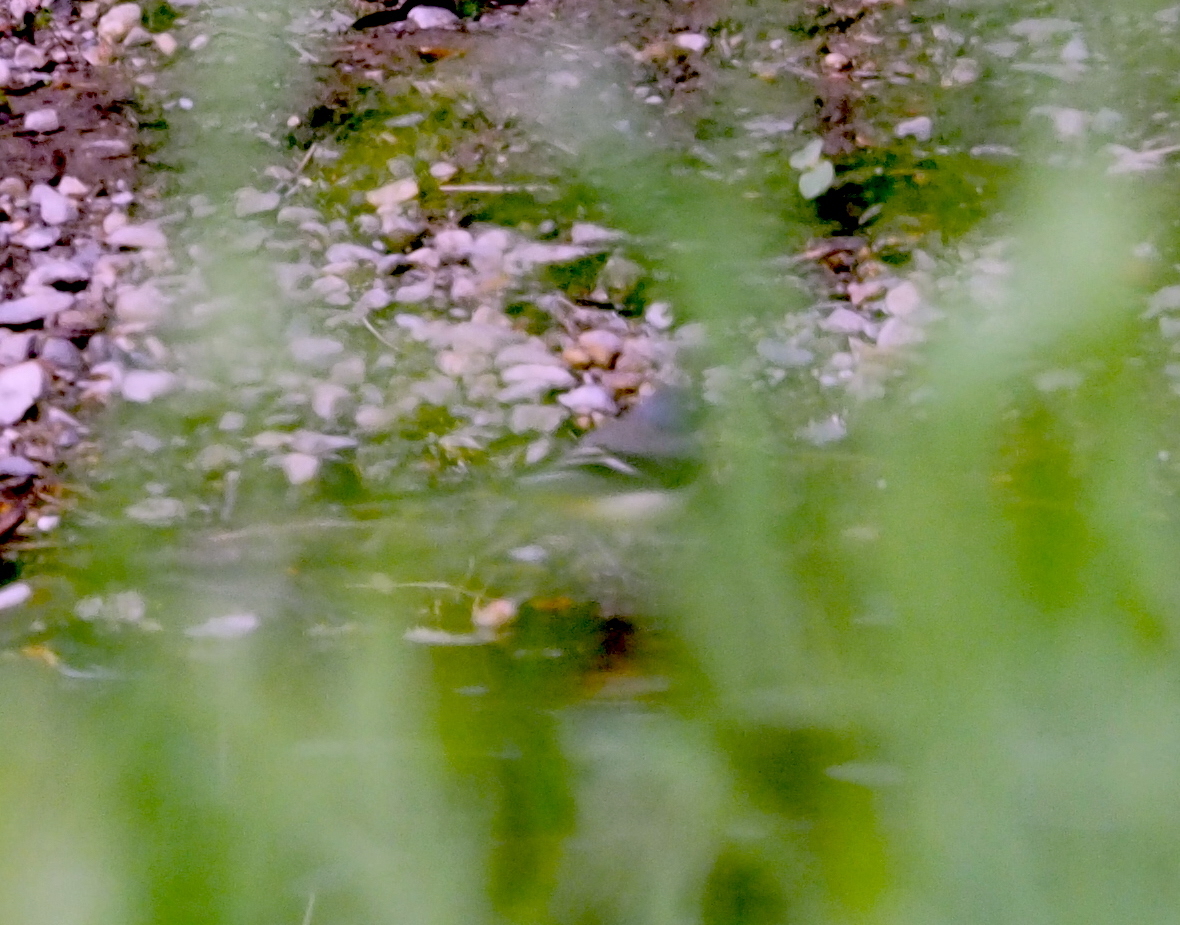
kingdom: Animalia
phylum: Chordata
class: Aves
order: Passeriformes
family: Motacillidae
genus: Motacilla
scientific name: Motacilla cinerea
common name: Grey wagtail
